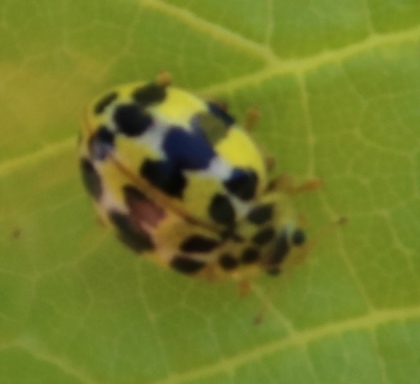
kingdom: Animalia
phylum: Arthropoda
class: Insecta
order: Coleoptera
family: Coccinellidae
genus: Psyllobora
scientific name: Psyllobora variegata
